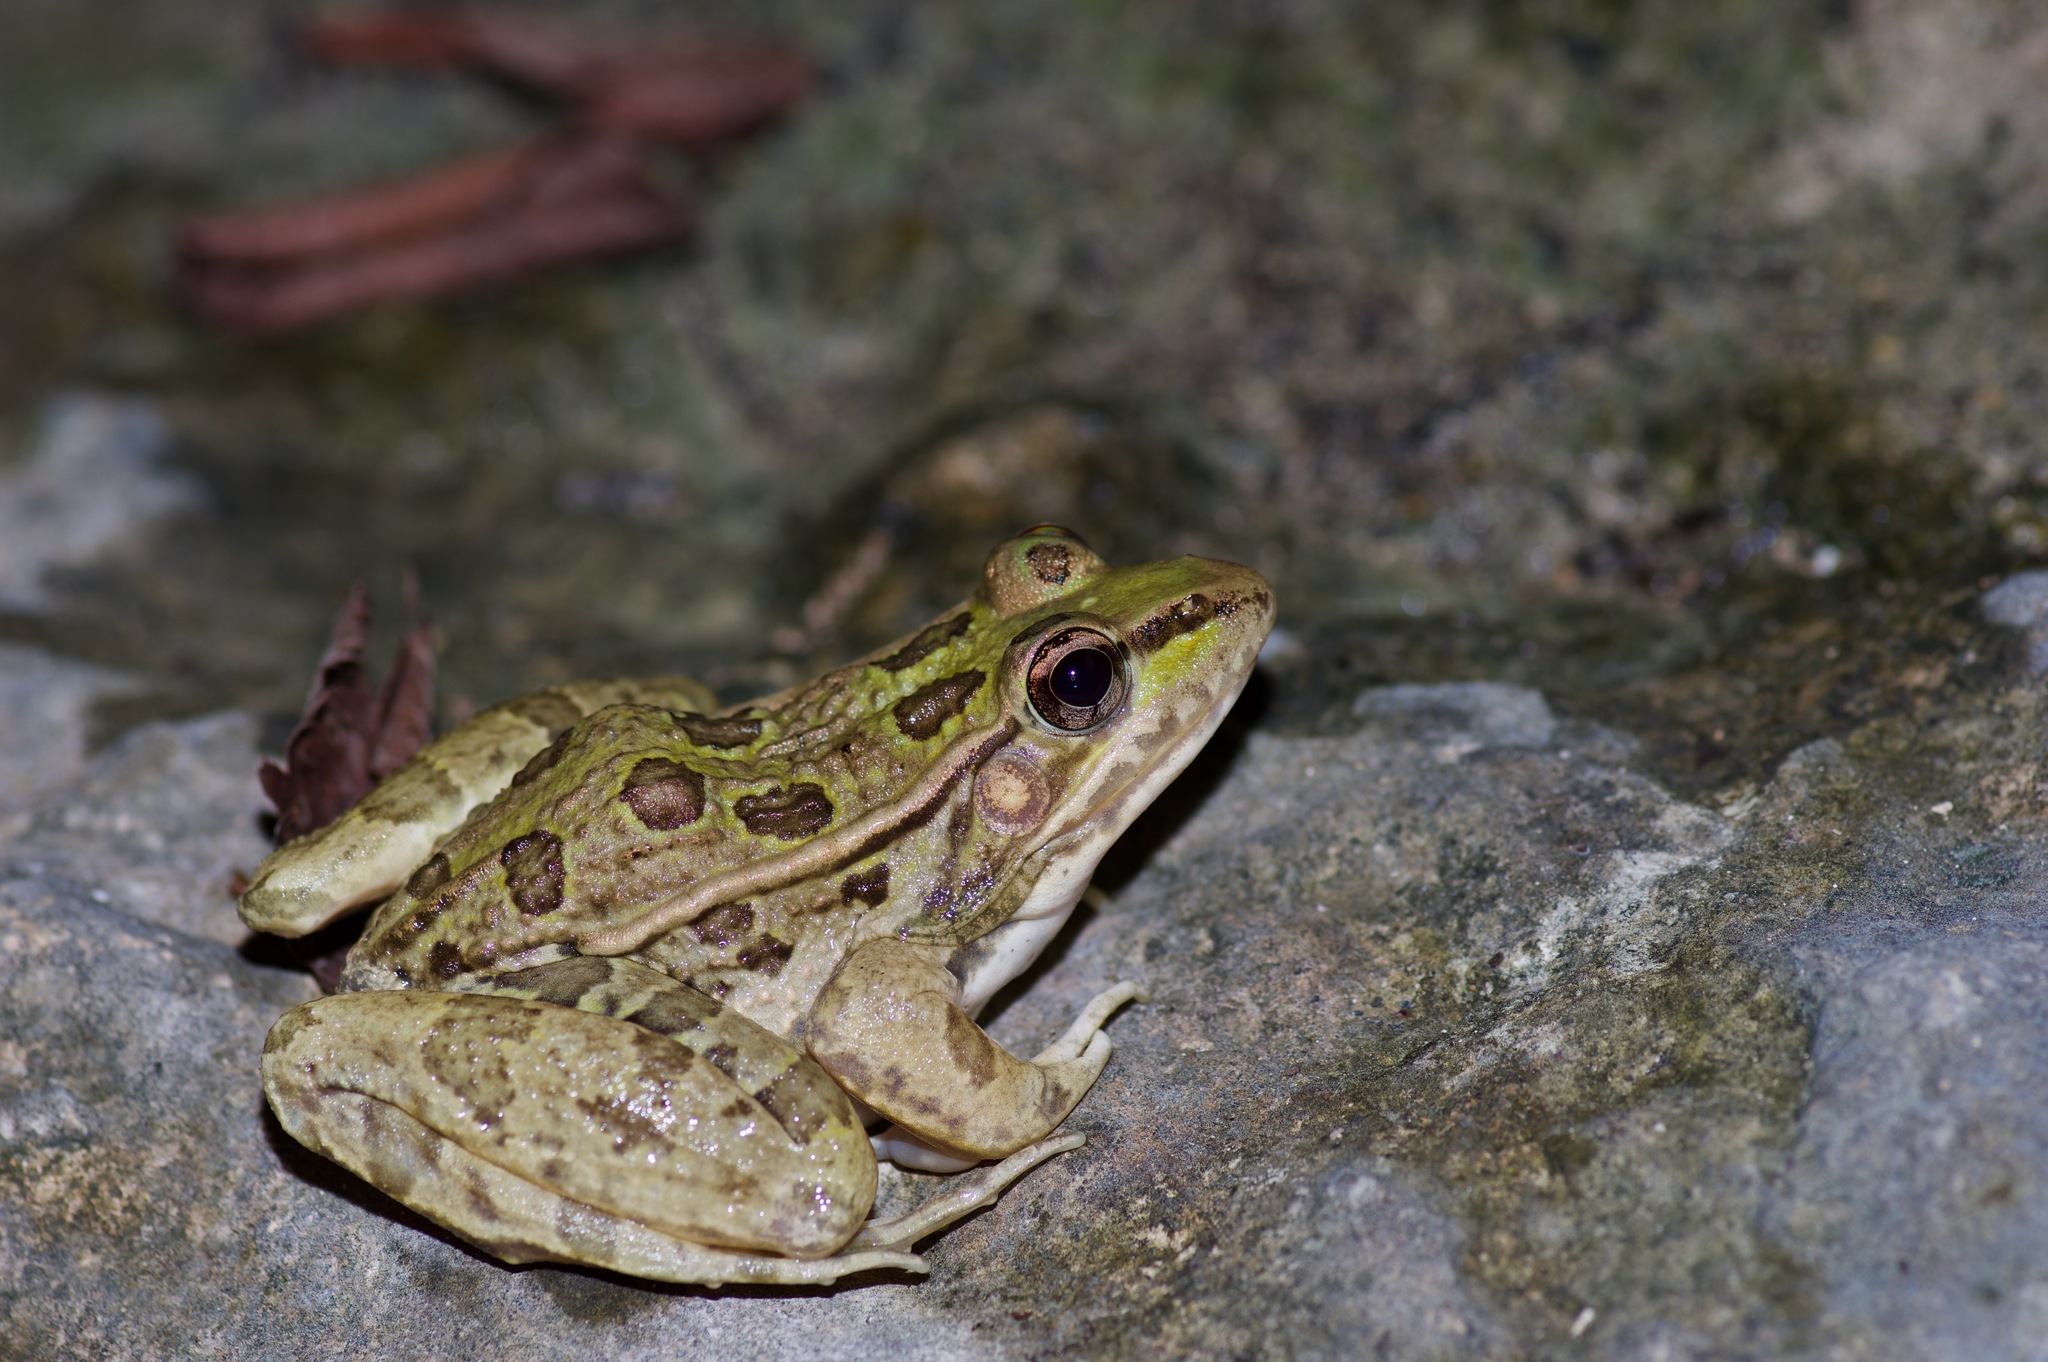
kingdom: Animalia
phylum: Chordata
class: Amphibia
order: Anura
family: Ranidae
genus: Lithobates
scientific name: Lithobates berlandieri
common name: Rio grande leopard frog
